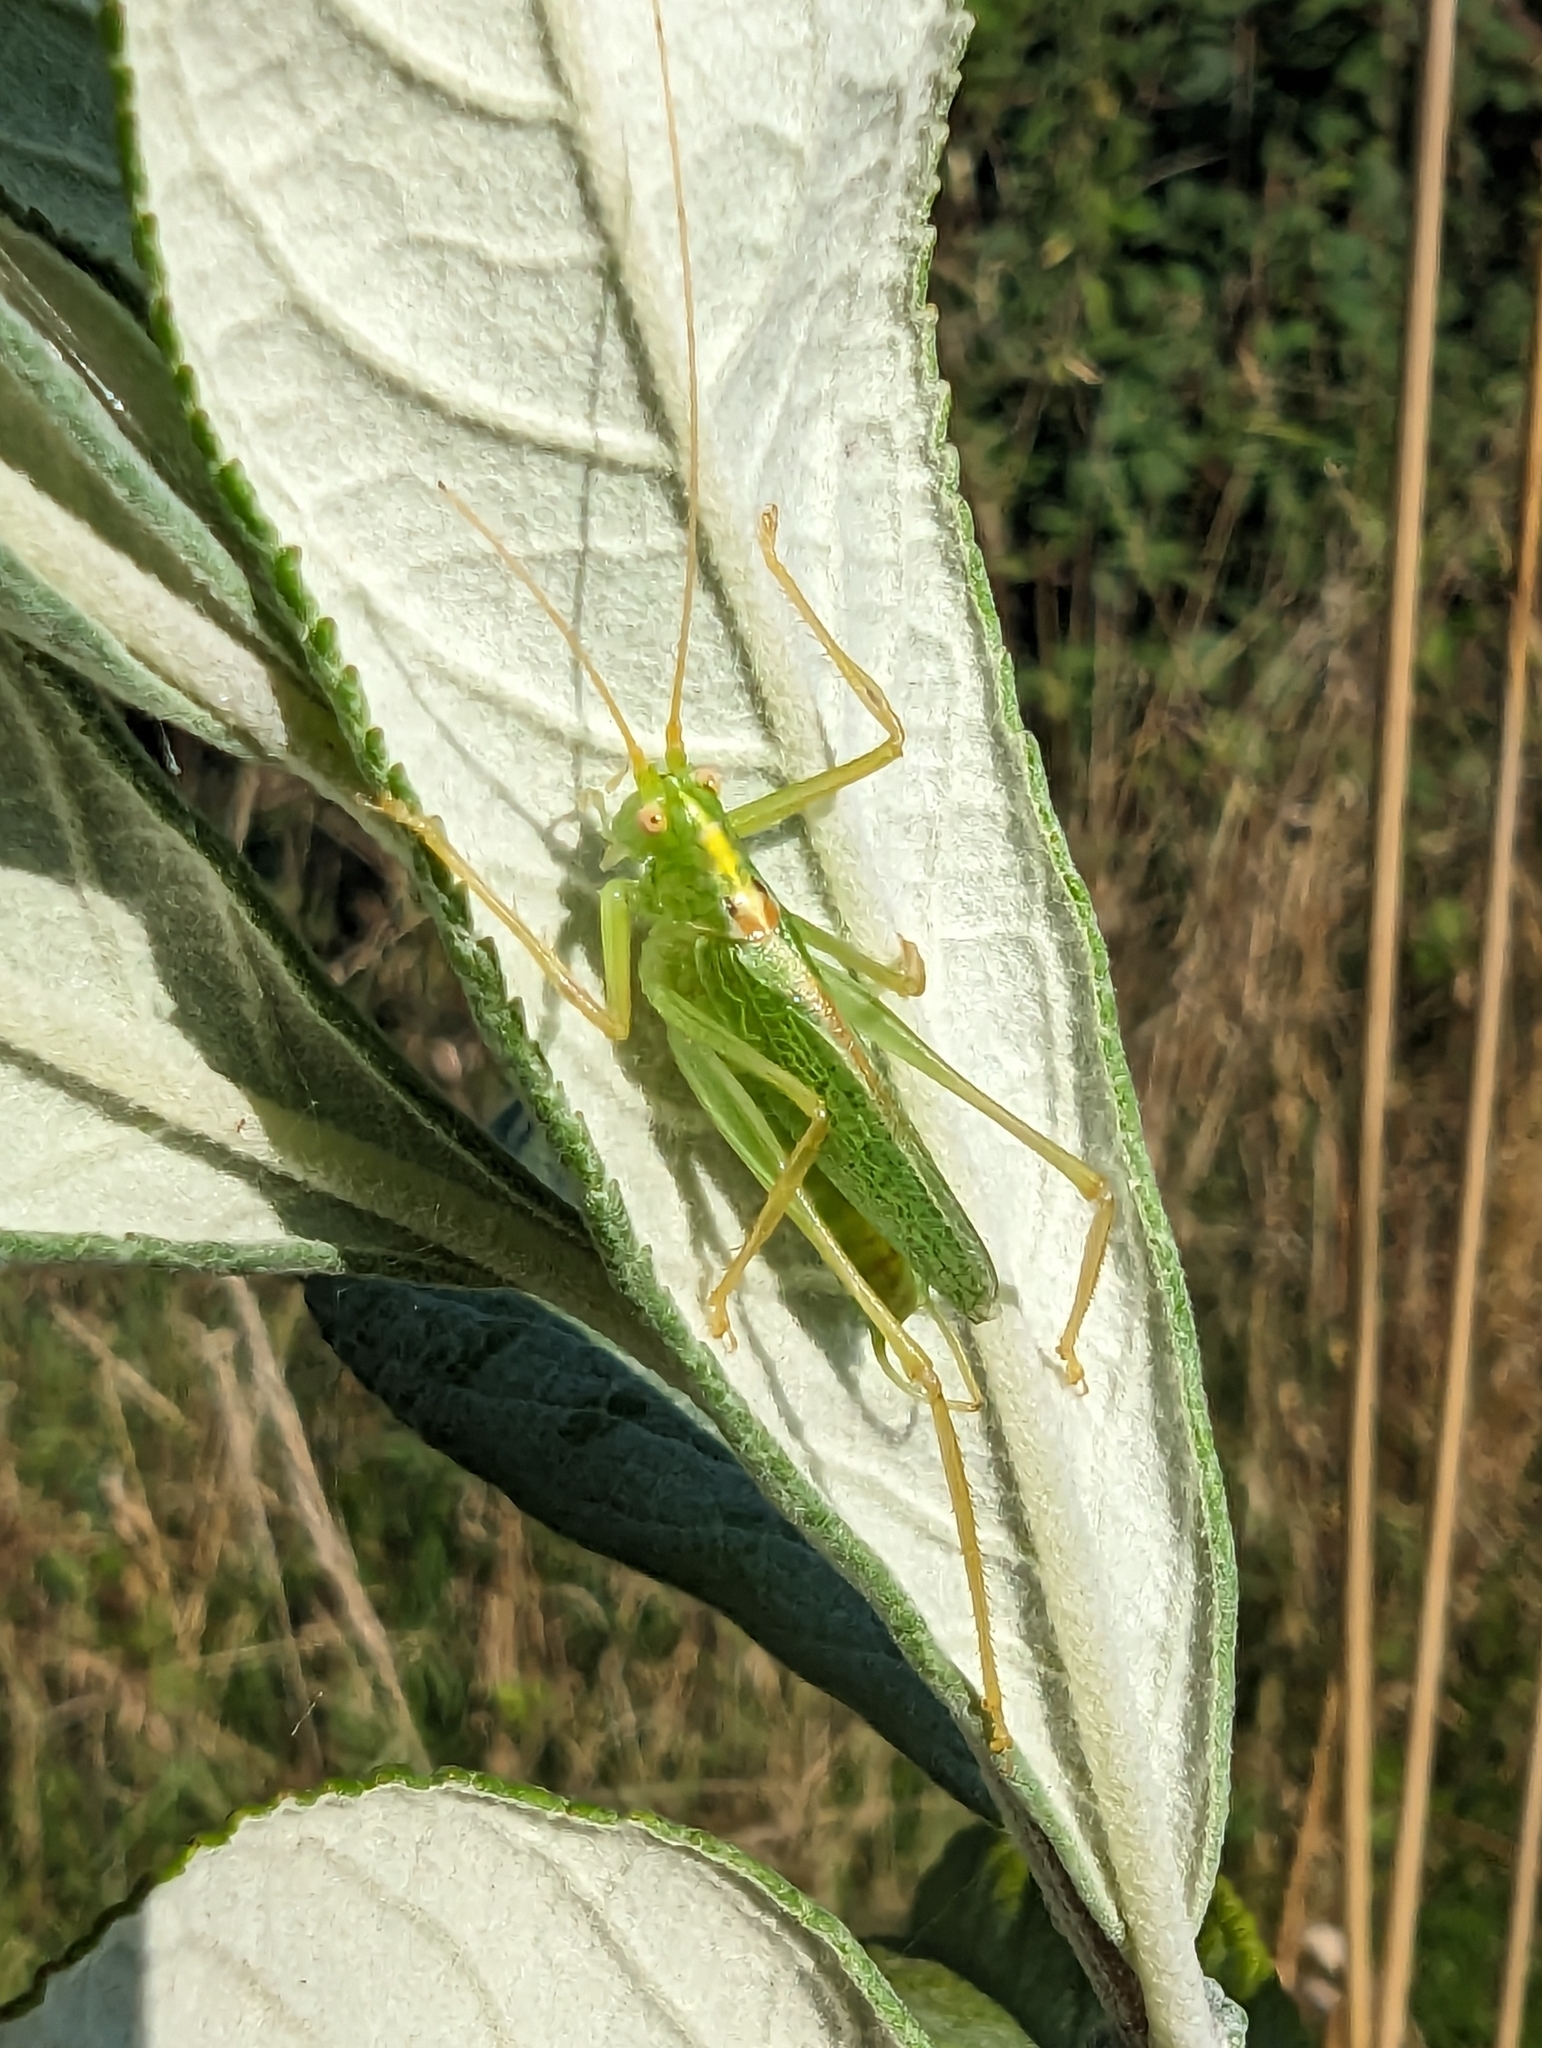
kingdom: Animalia
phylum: Arthropoda
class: Insecta
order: Orthoptera
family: Tettigoniidae
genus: Meconema
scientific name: Meconema thalassinum
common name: Oak bush-cricket
